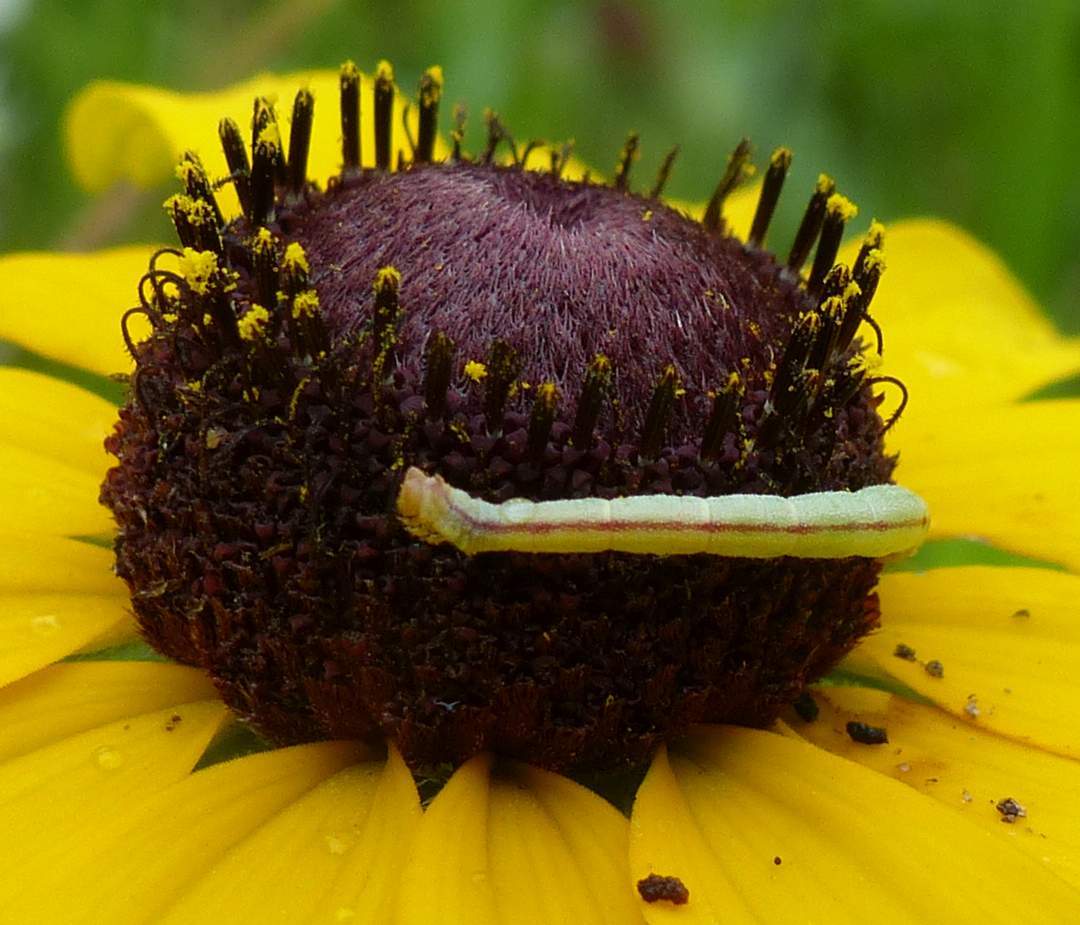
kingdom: Animalia
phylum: Arthropoda
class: Insecta
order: Lepidoptera
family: Geometridae
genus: Chlorochlamys
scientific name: Chlorochlamys chloroleucaria
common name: Blackberry looper
